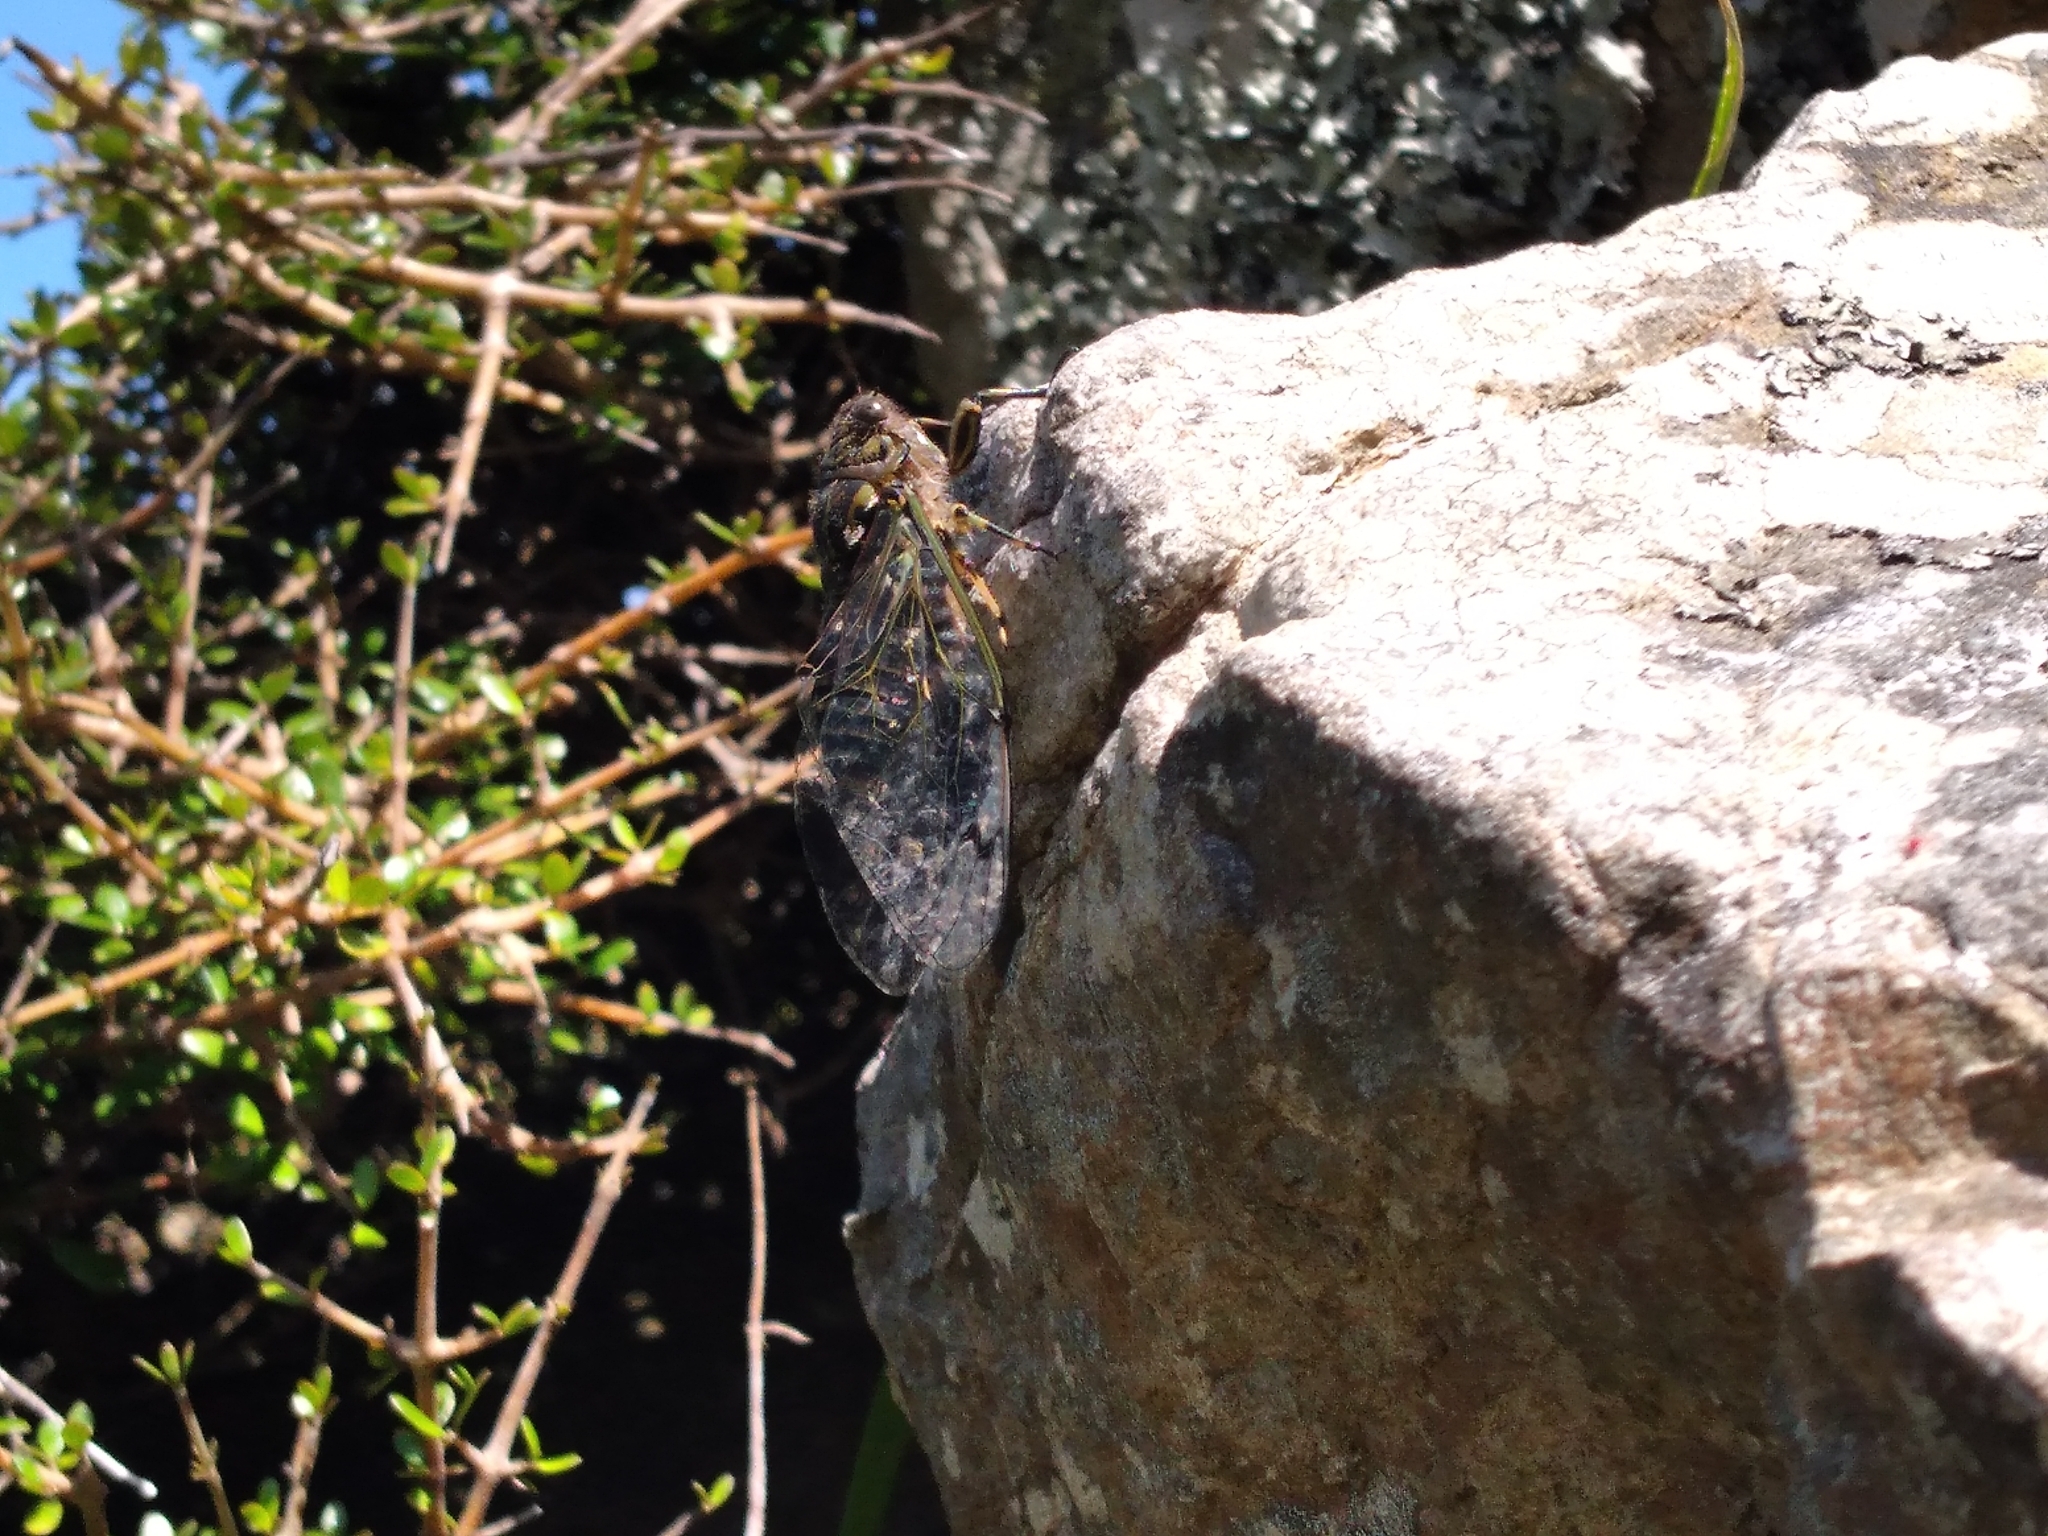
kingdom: Animalia
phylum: Arthropoda
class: Insecta
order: Hemiptera
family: Cicadidae
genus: Amphipsalta
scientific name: Amphipsalta zelandica
